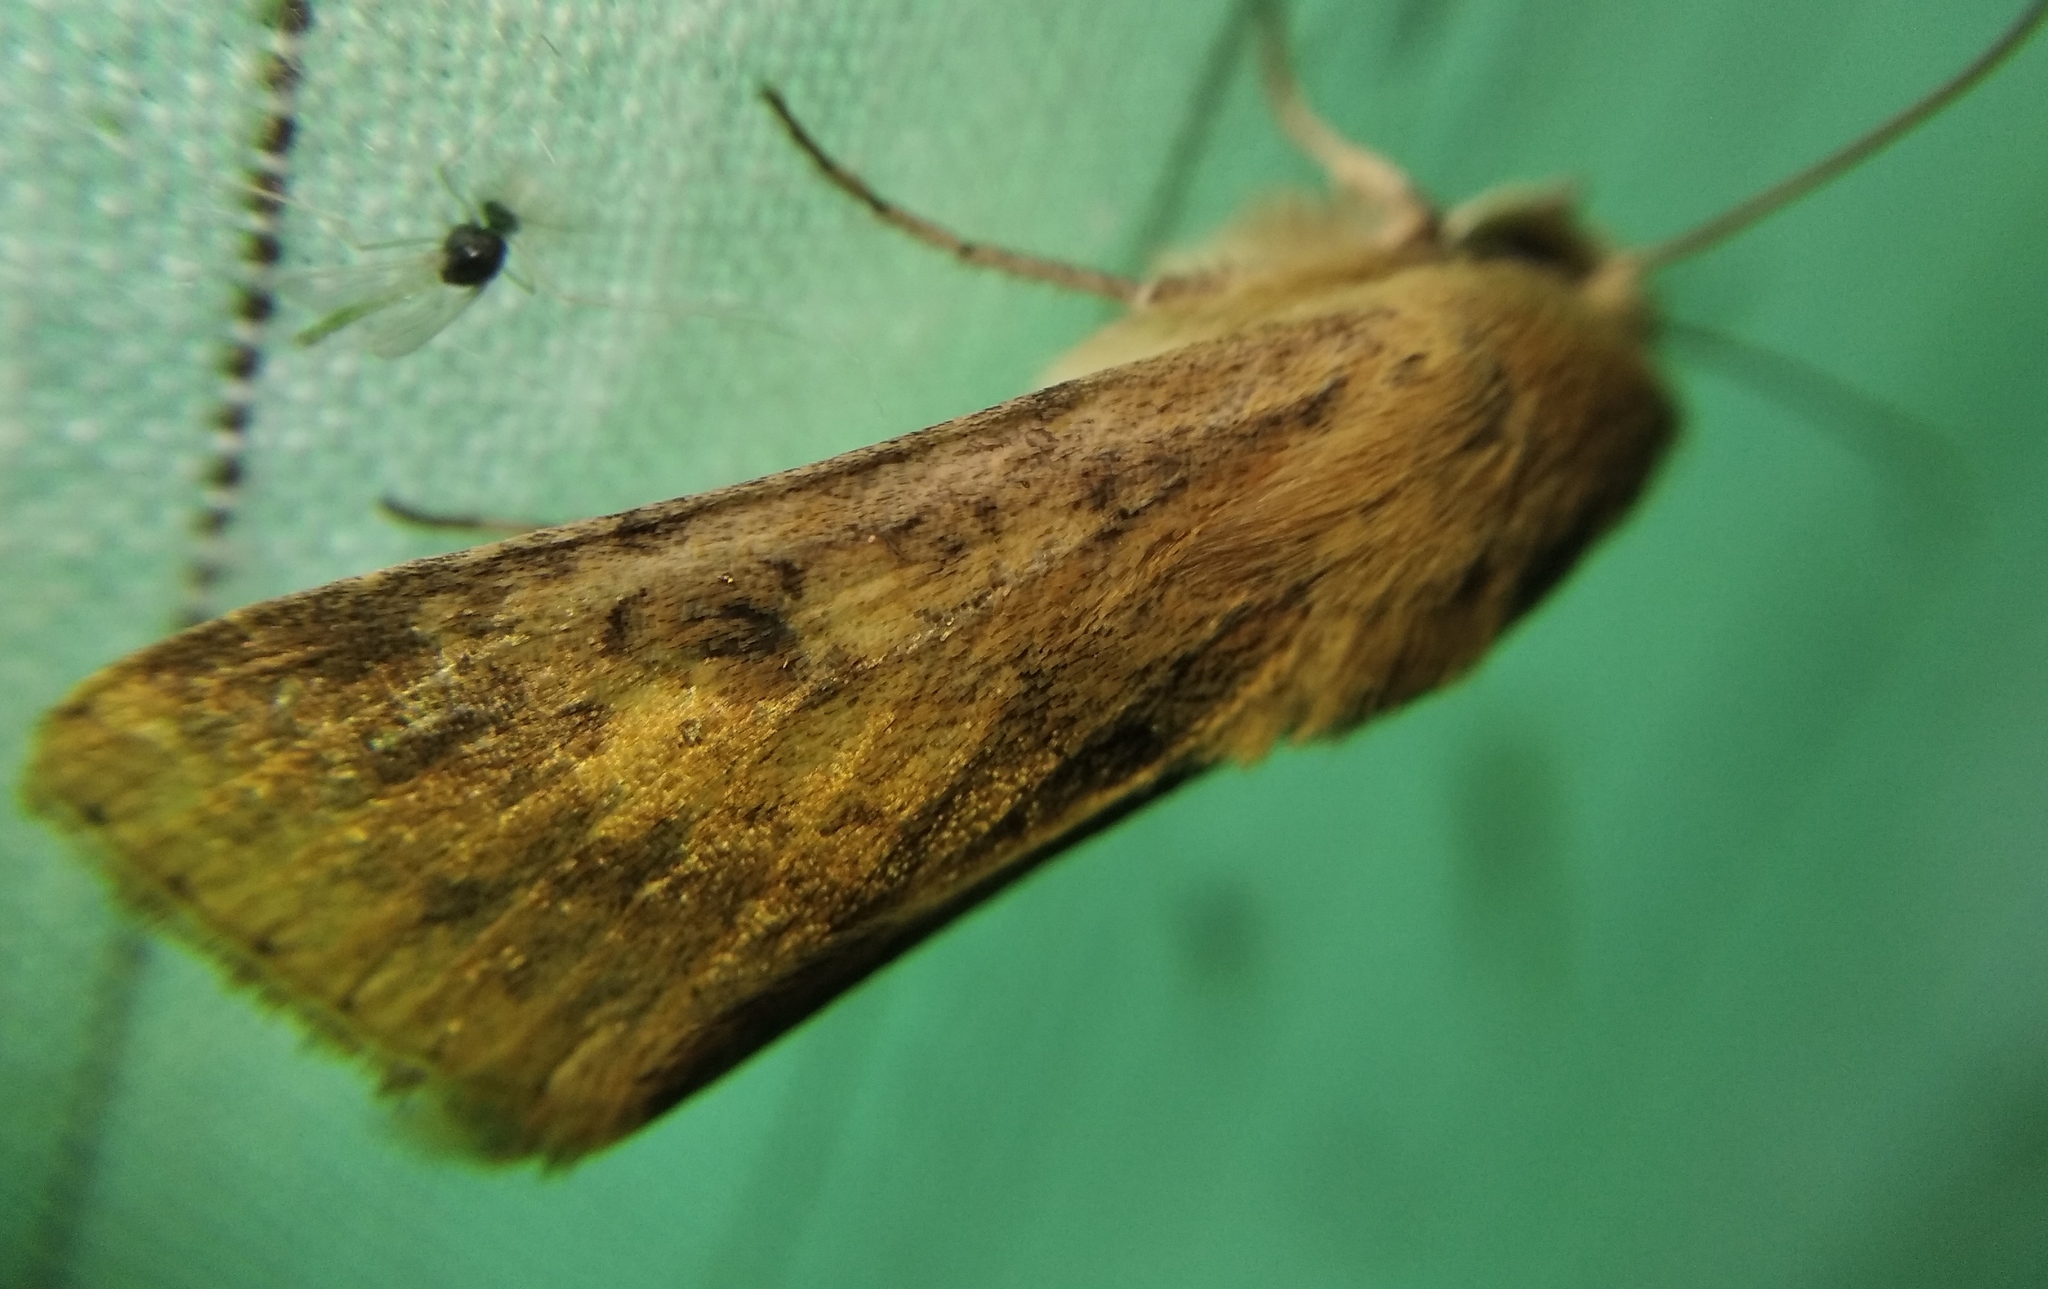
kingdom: Animalia
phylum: Arthropoda
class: Insecta
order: Lepidoptera
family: Noctuidae
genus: Helicoverpa
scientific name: Helicoverpa armigera
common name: Cotton bollworm
